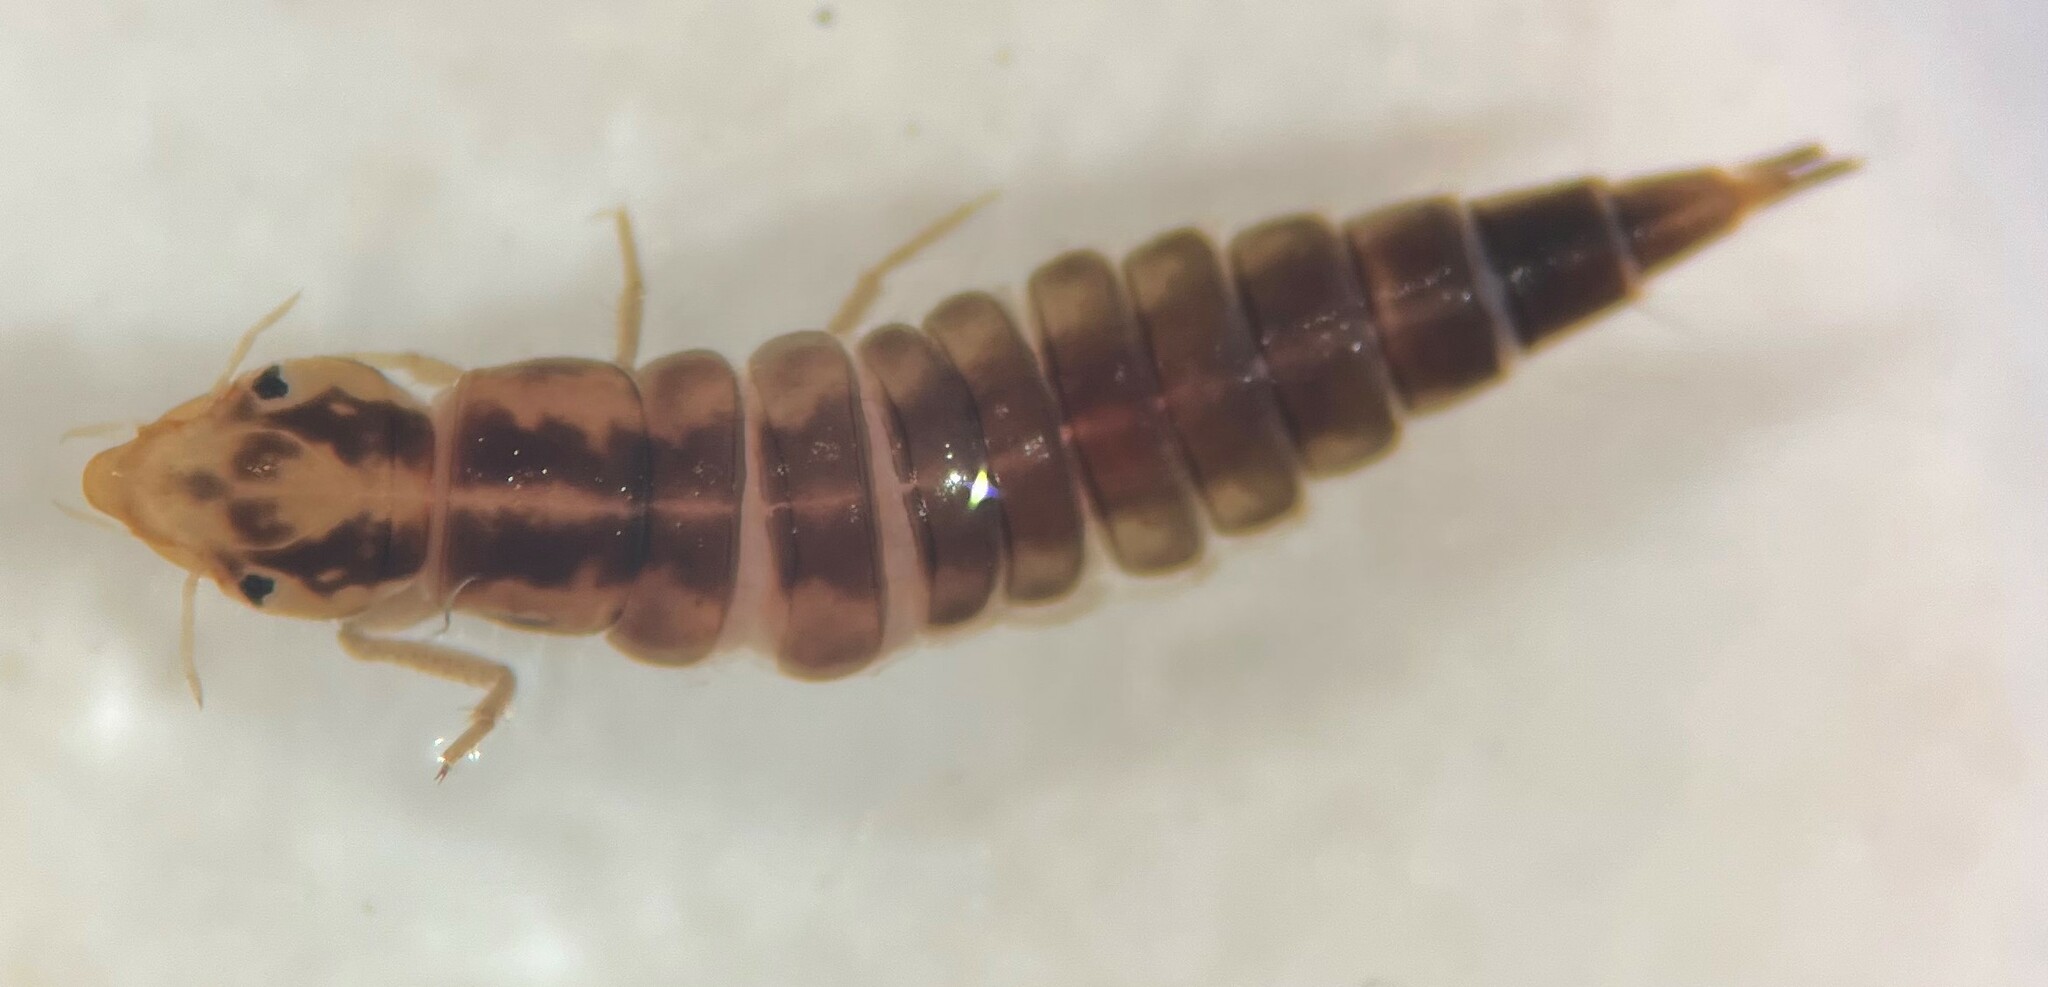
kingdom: Animalia
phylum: Arthropoda
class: Insecta
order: Coleoptera
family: Dytiscidae
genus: Neoporus
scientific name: Neoporus
